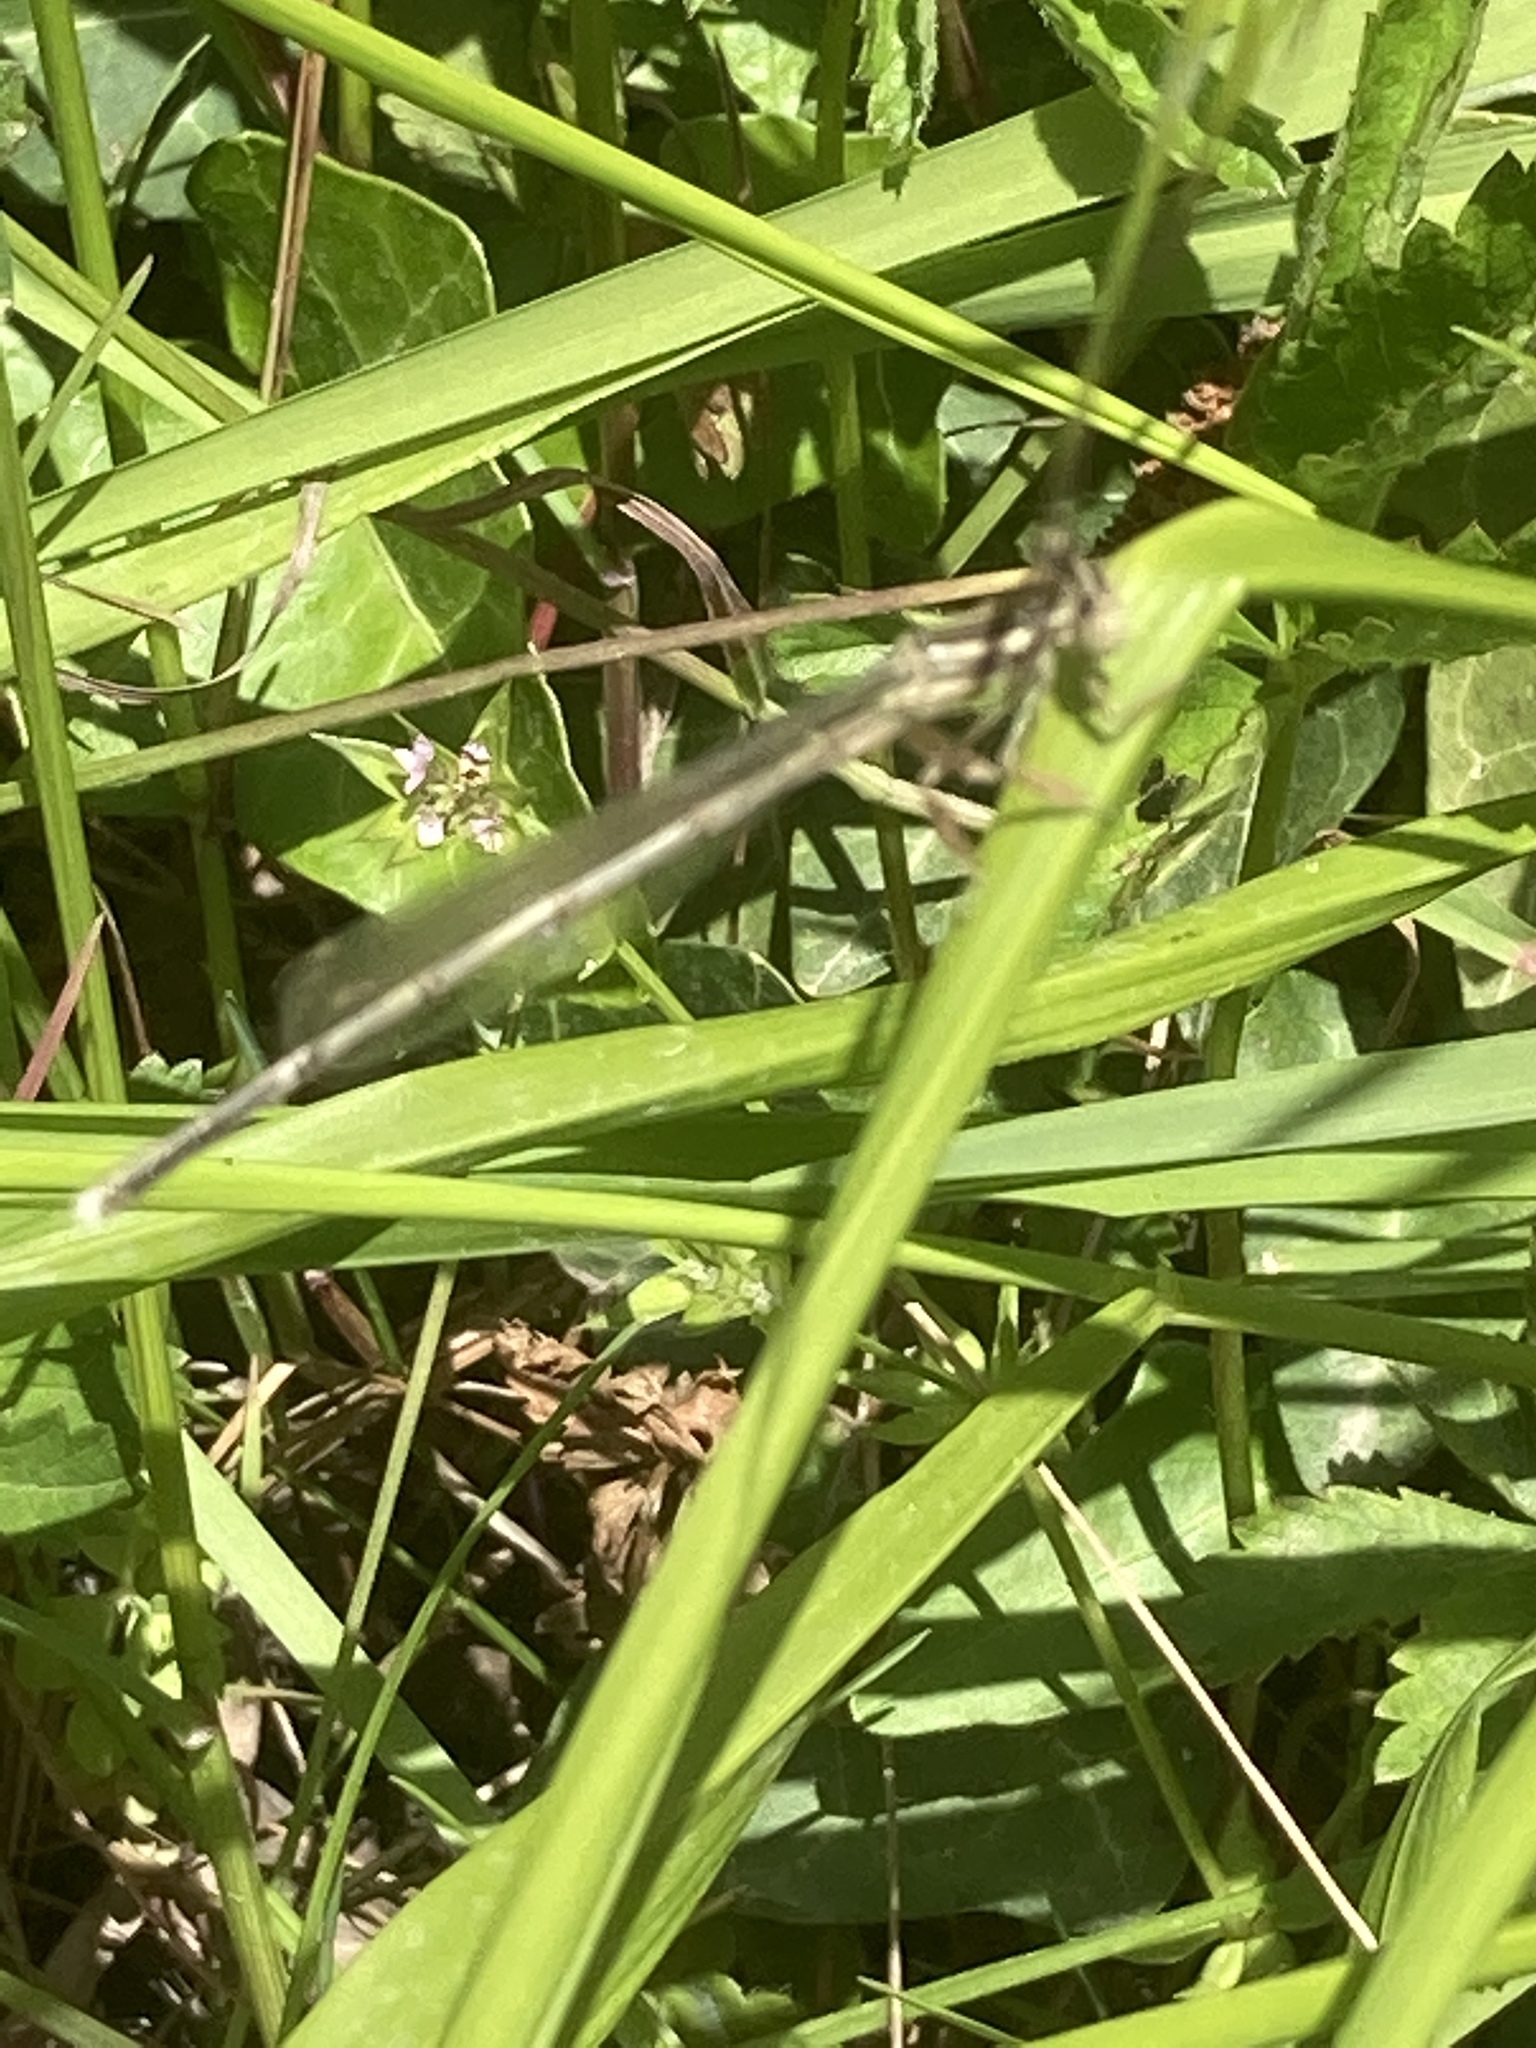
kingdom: Animalia
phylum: Arthropoda
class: Insecta
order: Odonata
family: Platycnemididae
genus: Platycnemis
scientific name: Platycnemis pennipes
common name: White-legged damselfly
